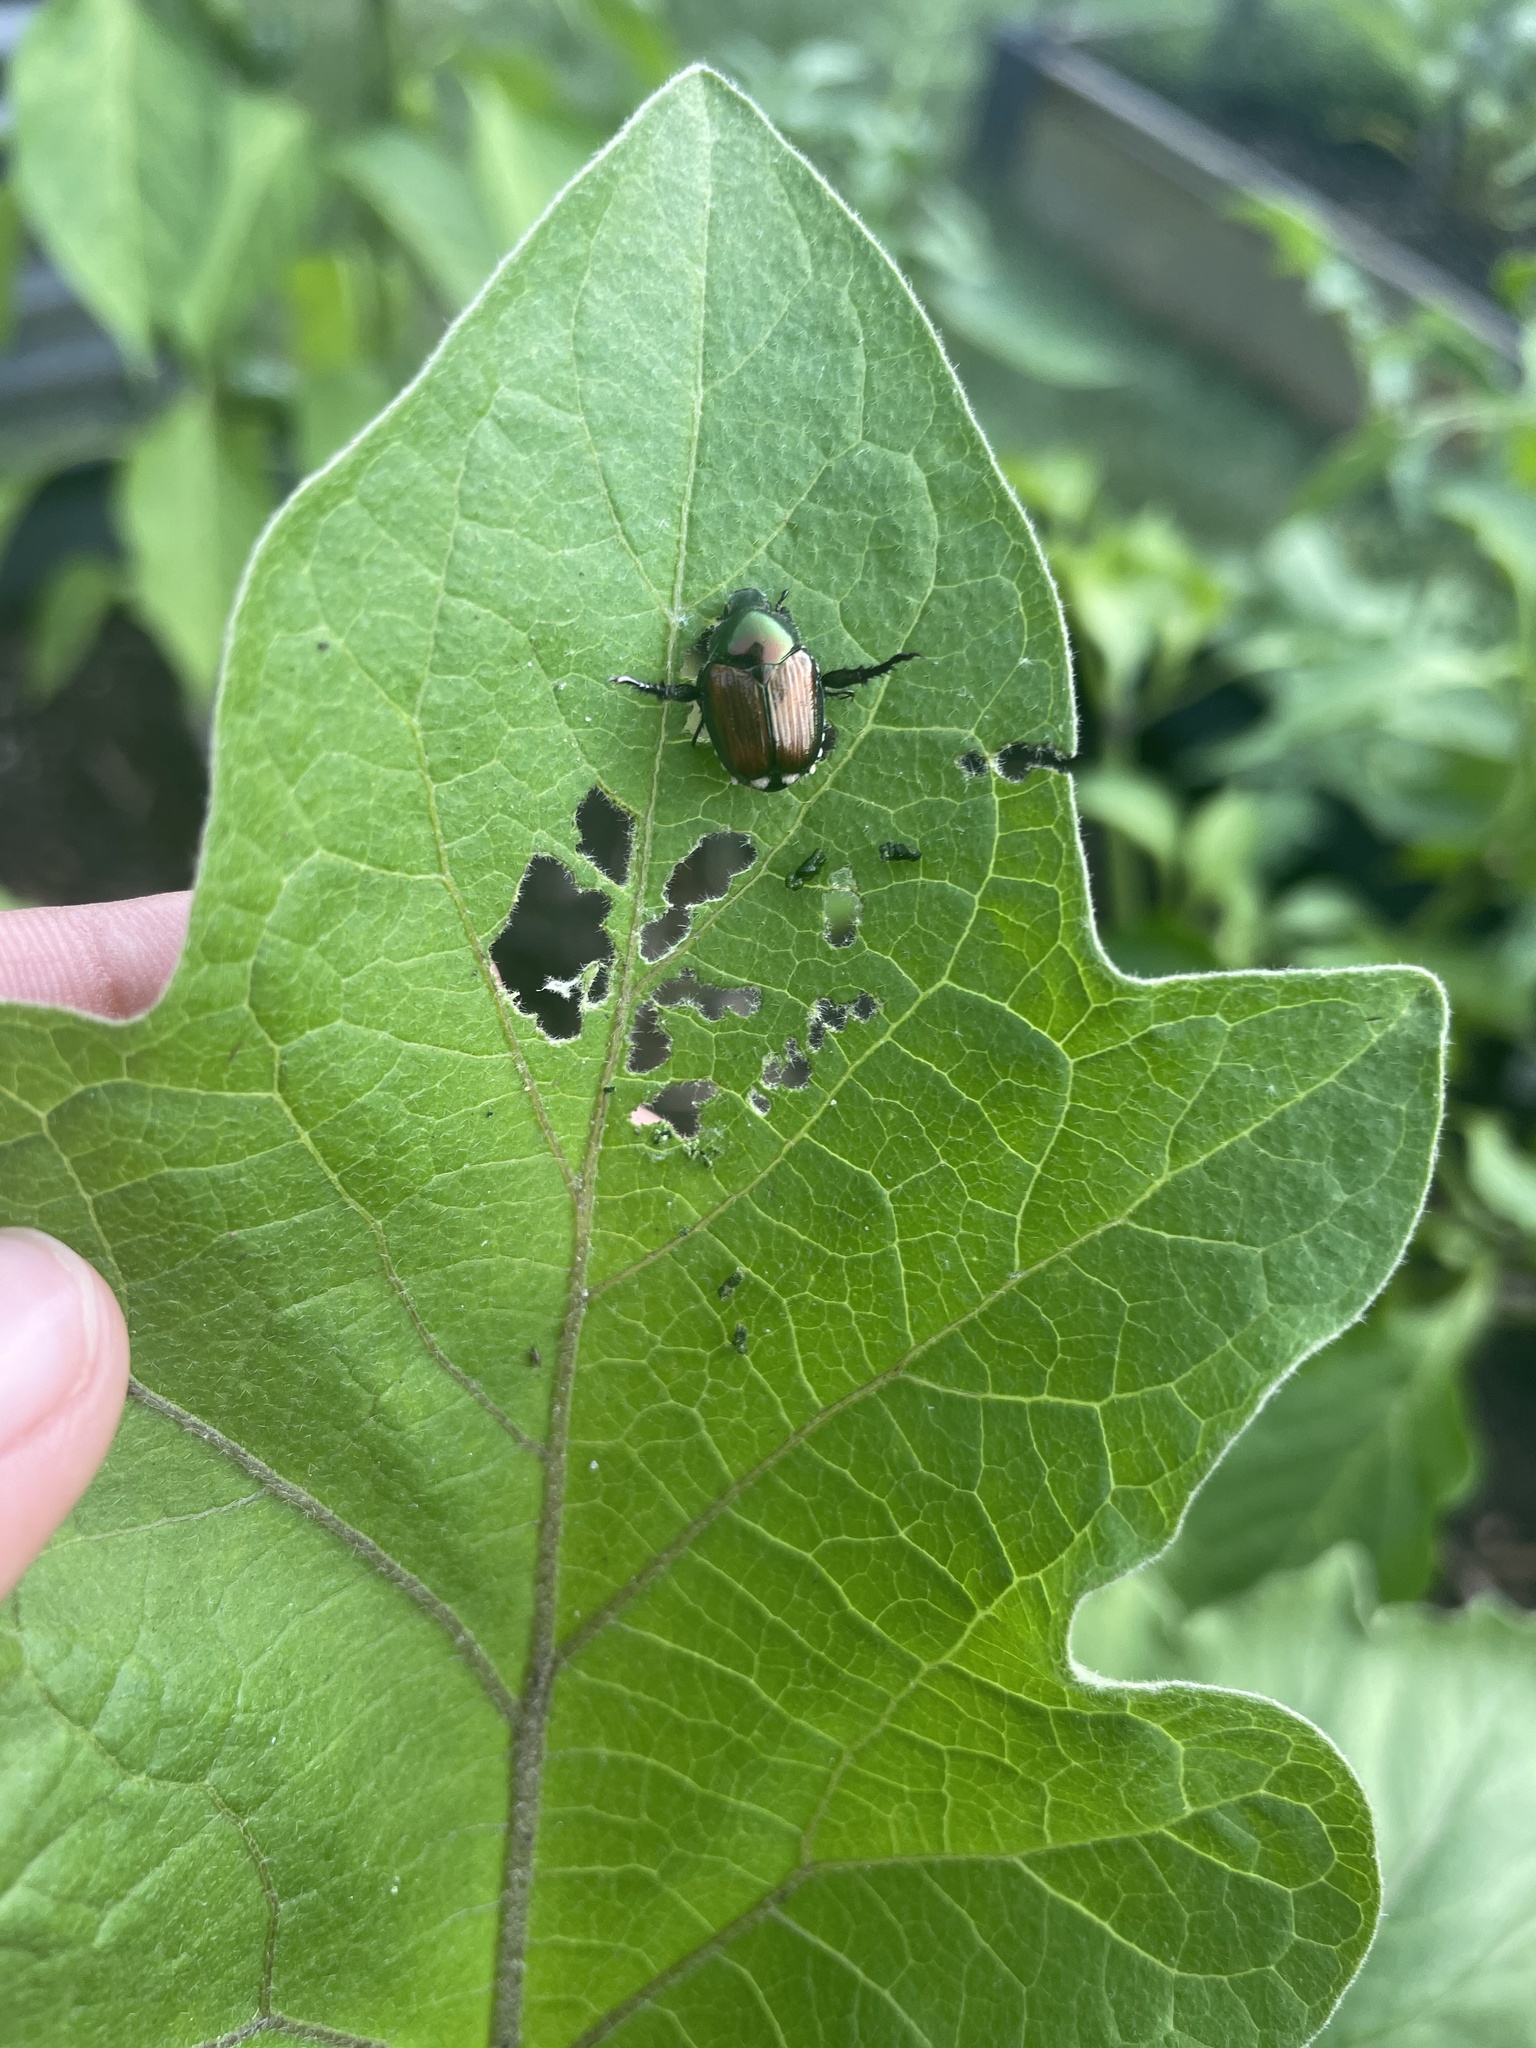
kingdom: Animalia
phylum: Arthropoda
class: Insecta
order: Coleoptera
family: Scarabaeidae
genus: Popillia
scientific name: Popillia japonica
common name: Japanese beetle
